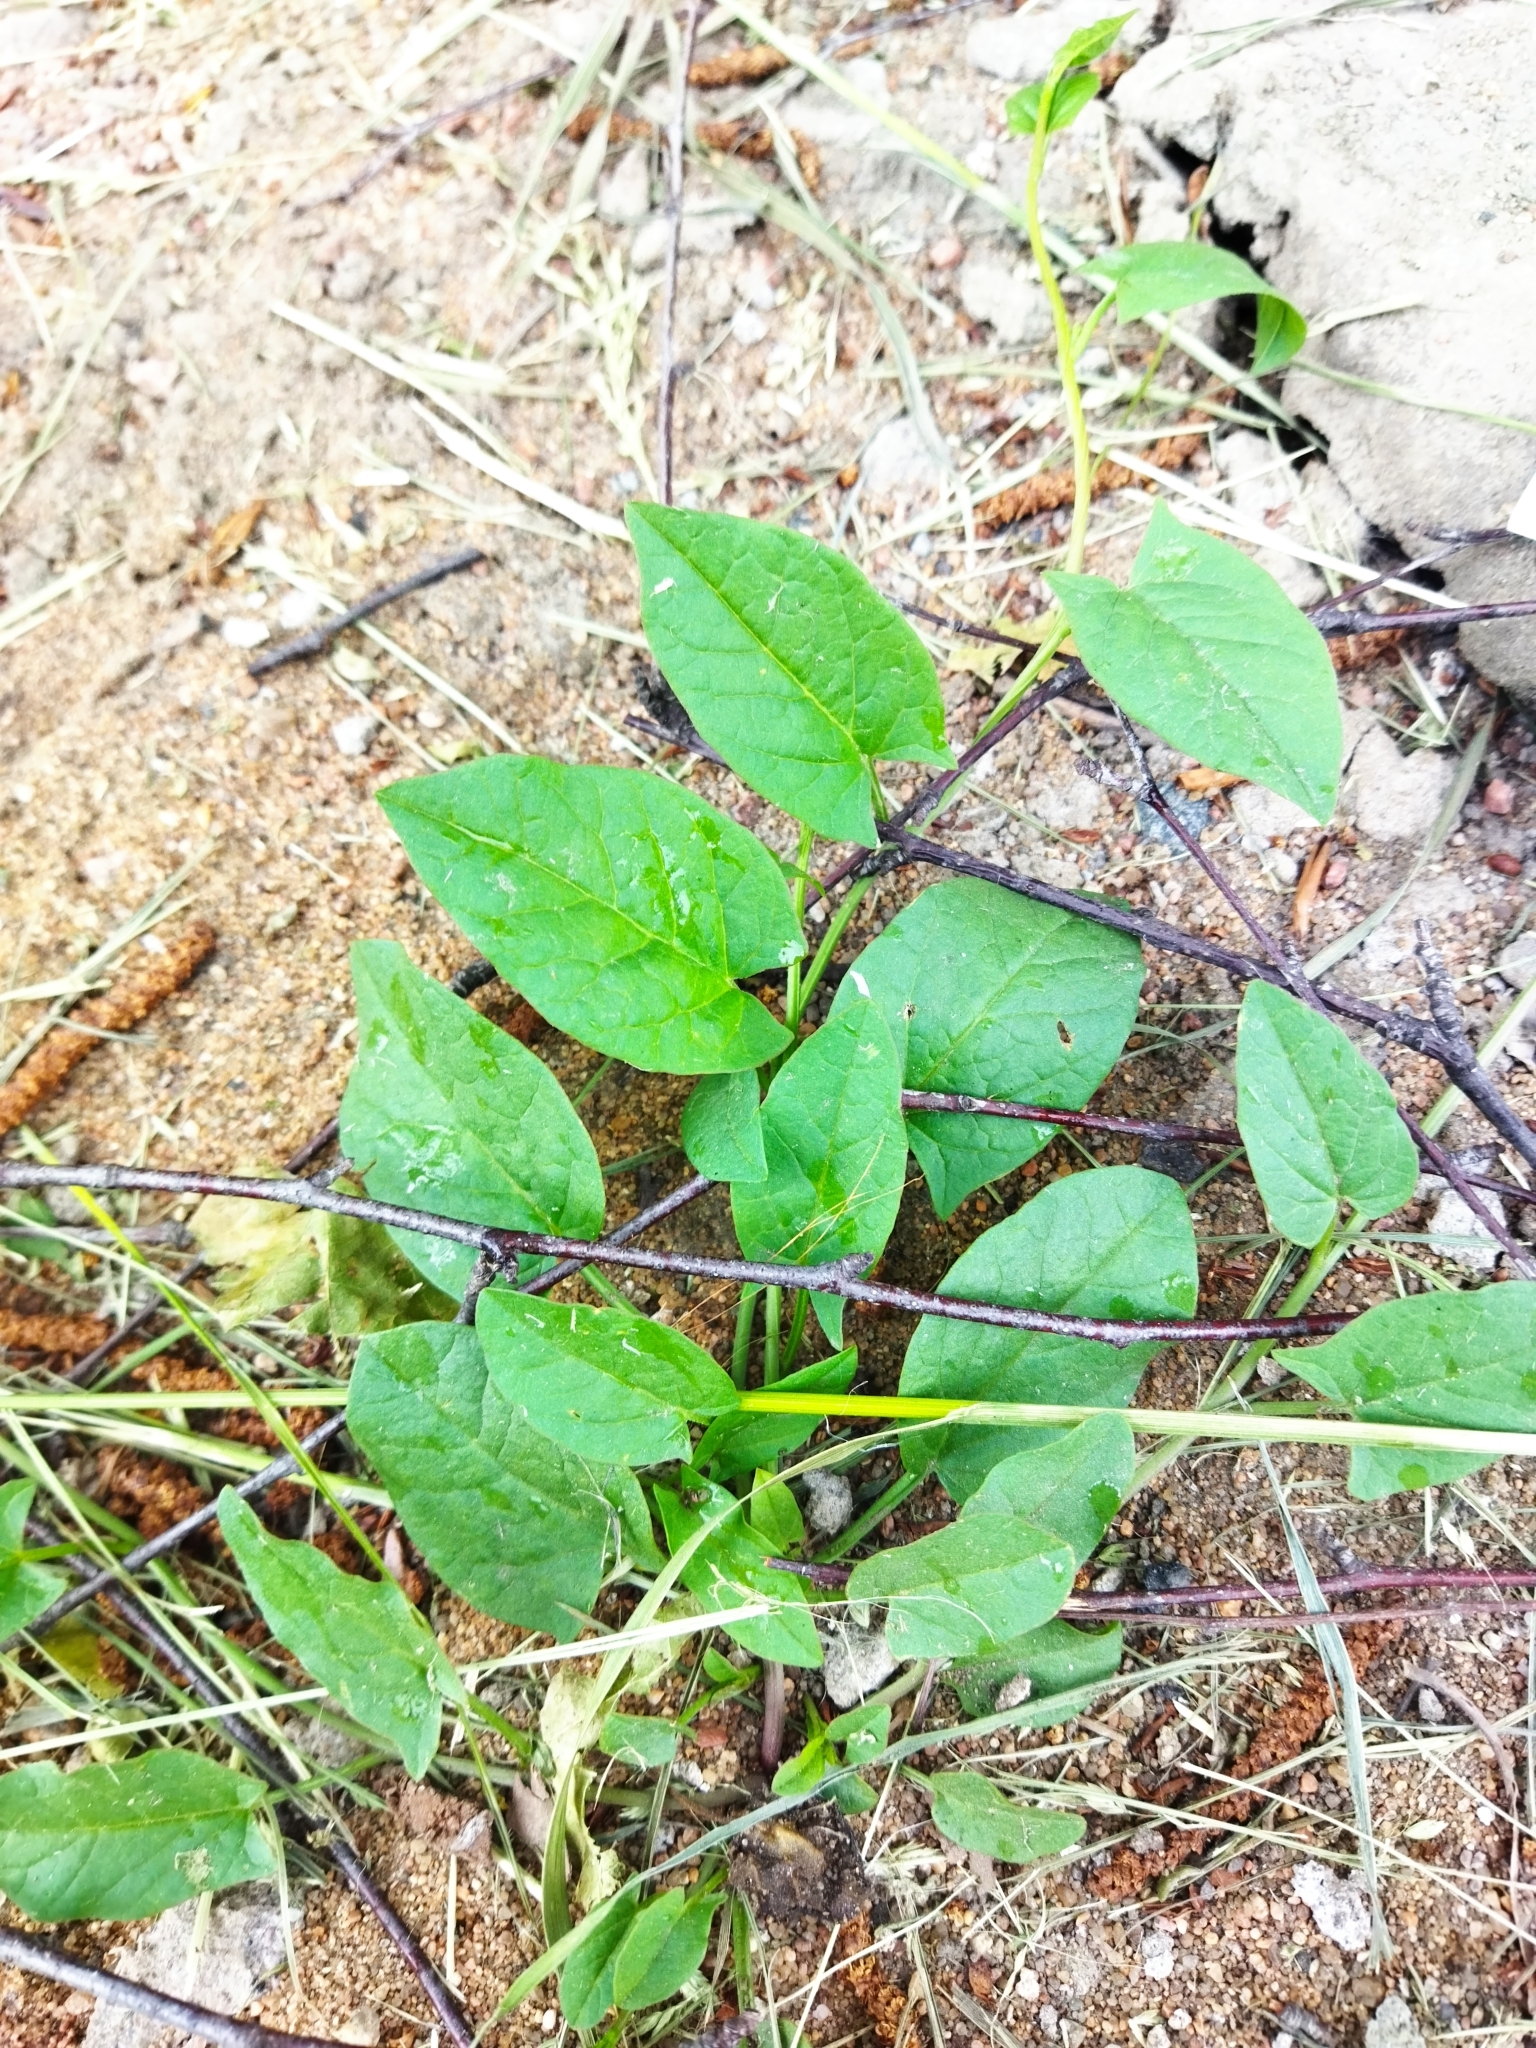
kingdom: Plantae
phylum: Tracheophyta
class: Magnoliopsida
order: Solanales
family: Convolvulaceae
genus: Convolvulus
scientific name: Convolvulus arvensis
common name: Field bindweed
